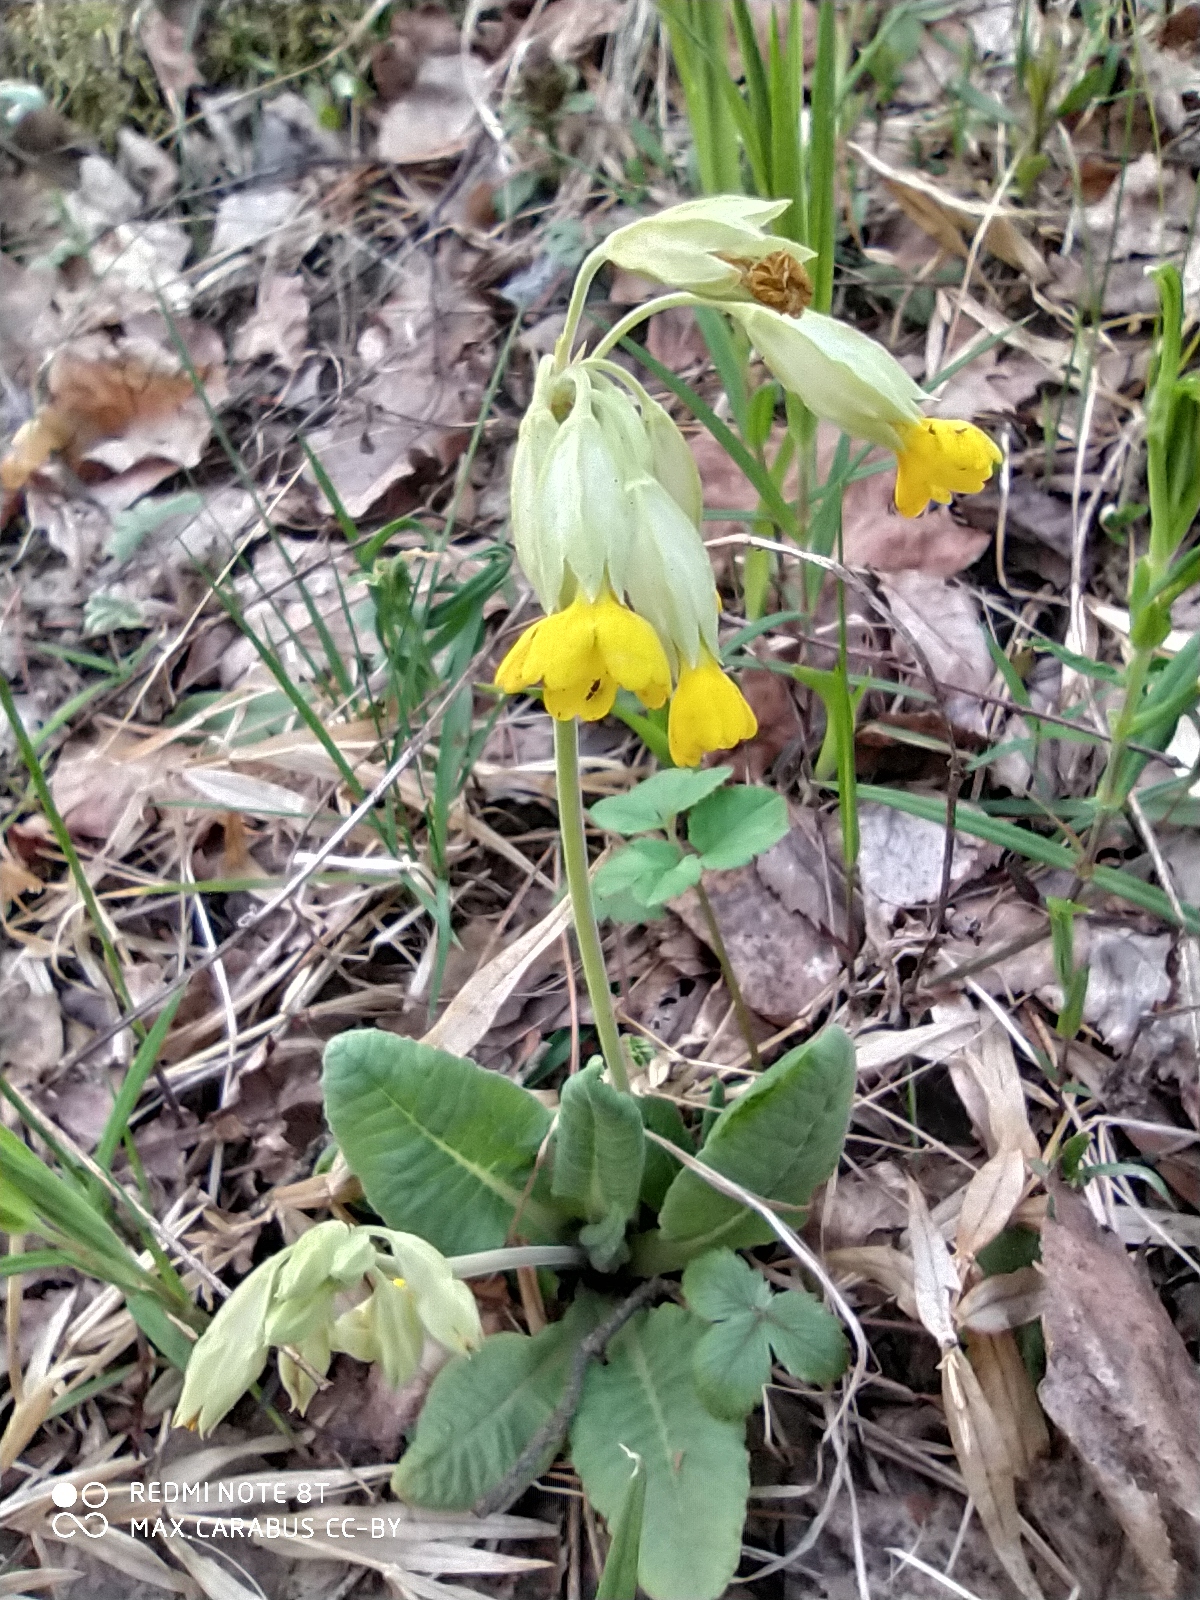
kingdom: Plantae
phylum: Tracheophyta
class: Magnoliopsida
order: Ericales
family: Primulaceae
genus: Primula
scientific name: Primula veris
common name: Cowslip
